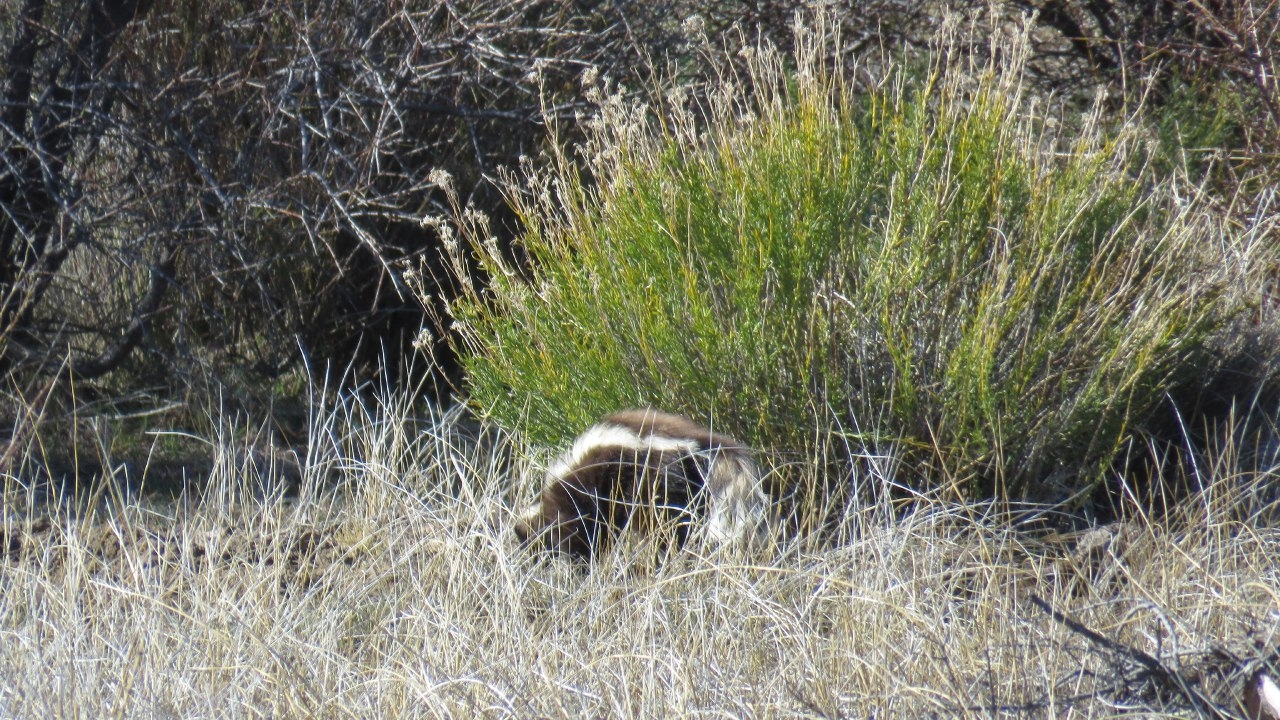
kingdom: Animalia
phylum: Chordata
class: Mammalia
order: Carnivora
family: Mephitidae
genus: Conepatus
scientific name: Conepatus chinga
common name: Molina's hog-nosed skunk
